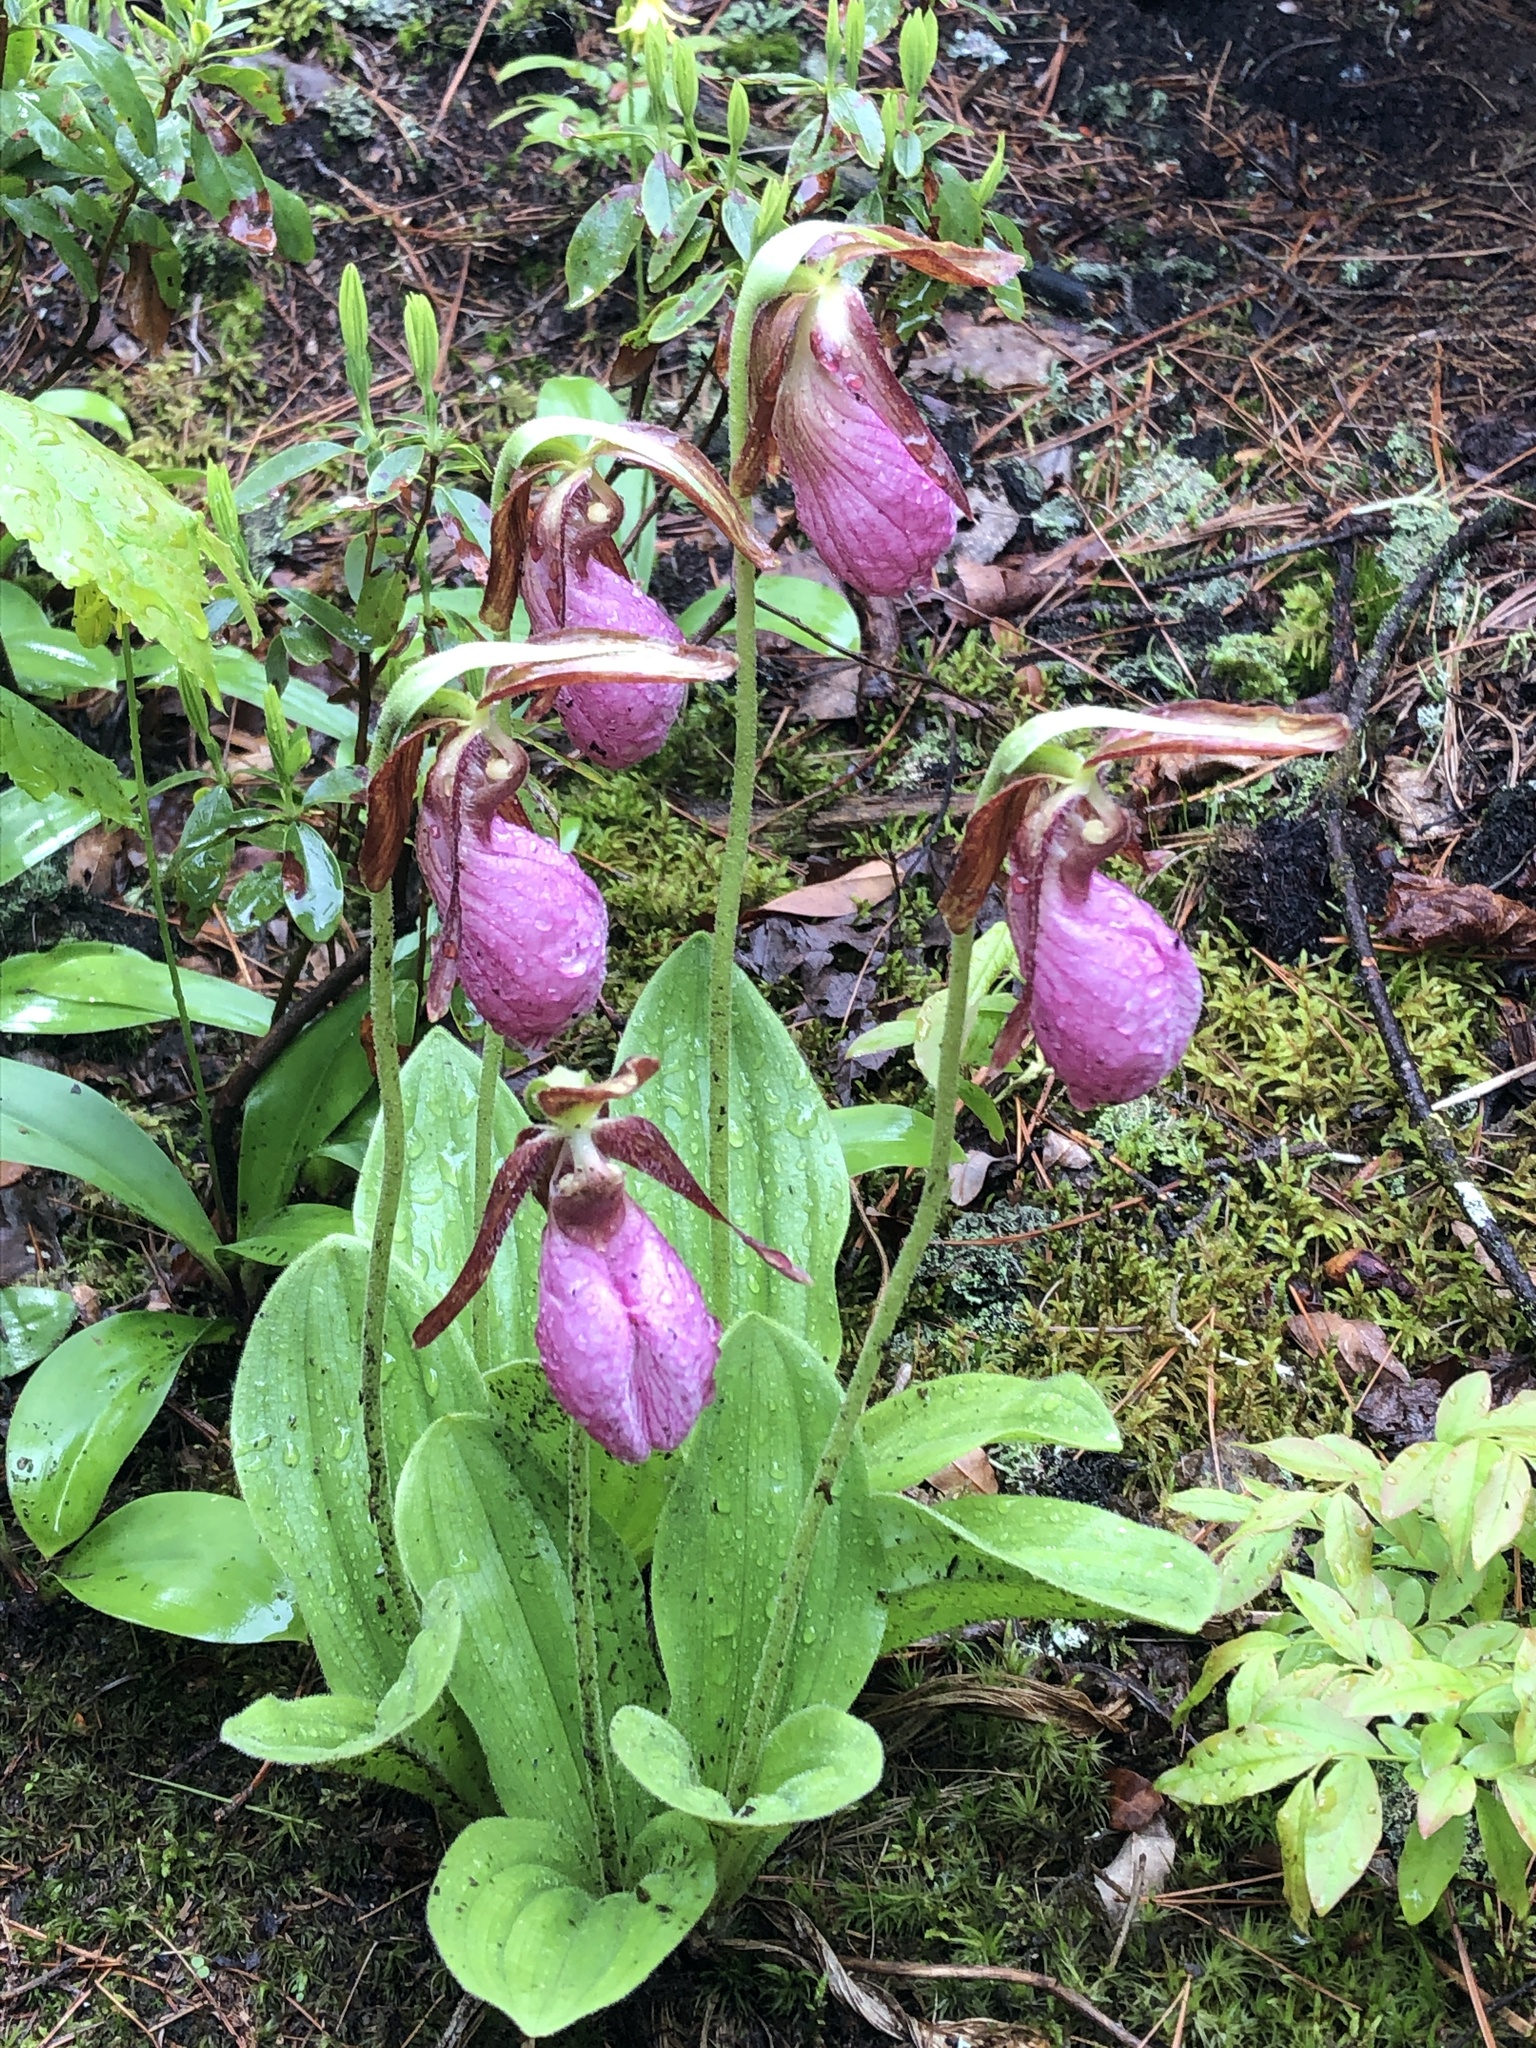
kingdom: Plantae
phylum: Tracheophyta
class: Liliopsida
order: Asparagales
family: Orchidaceae
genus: Cypripedium
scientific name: Cypripedium acaule
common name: Pink lady's-slipper
